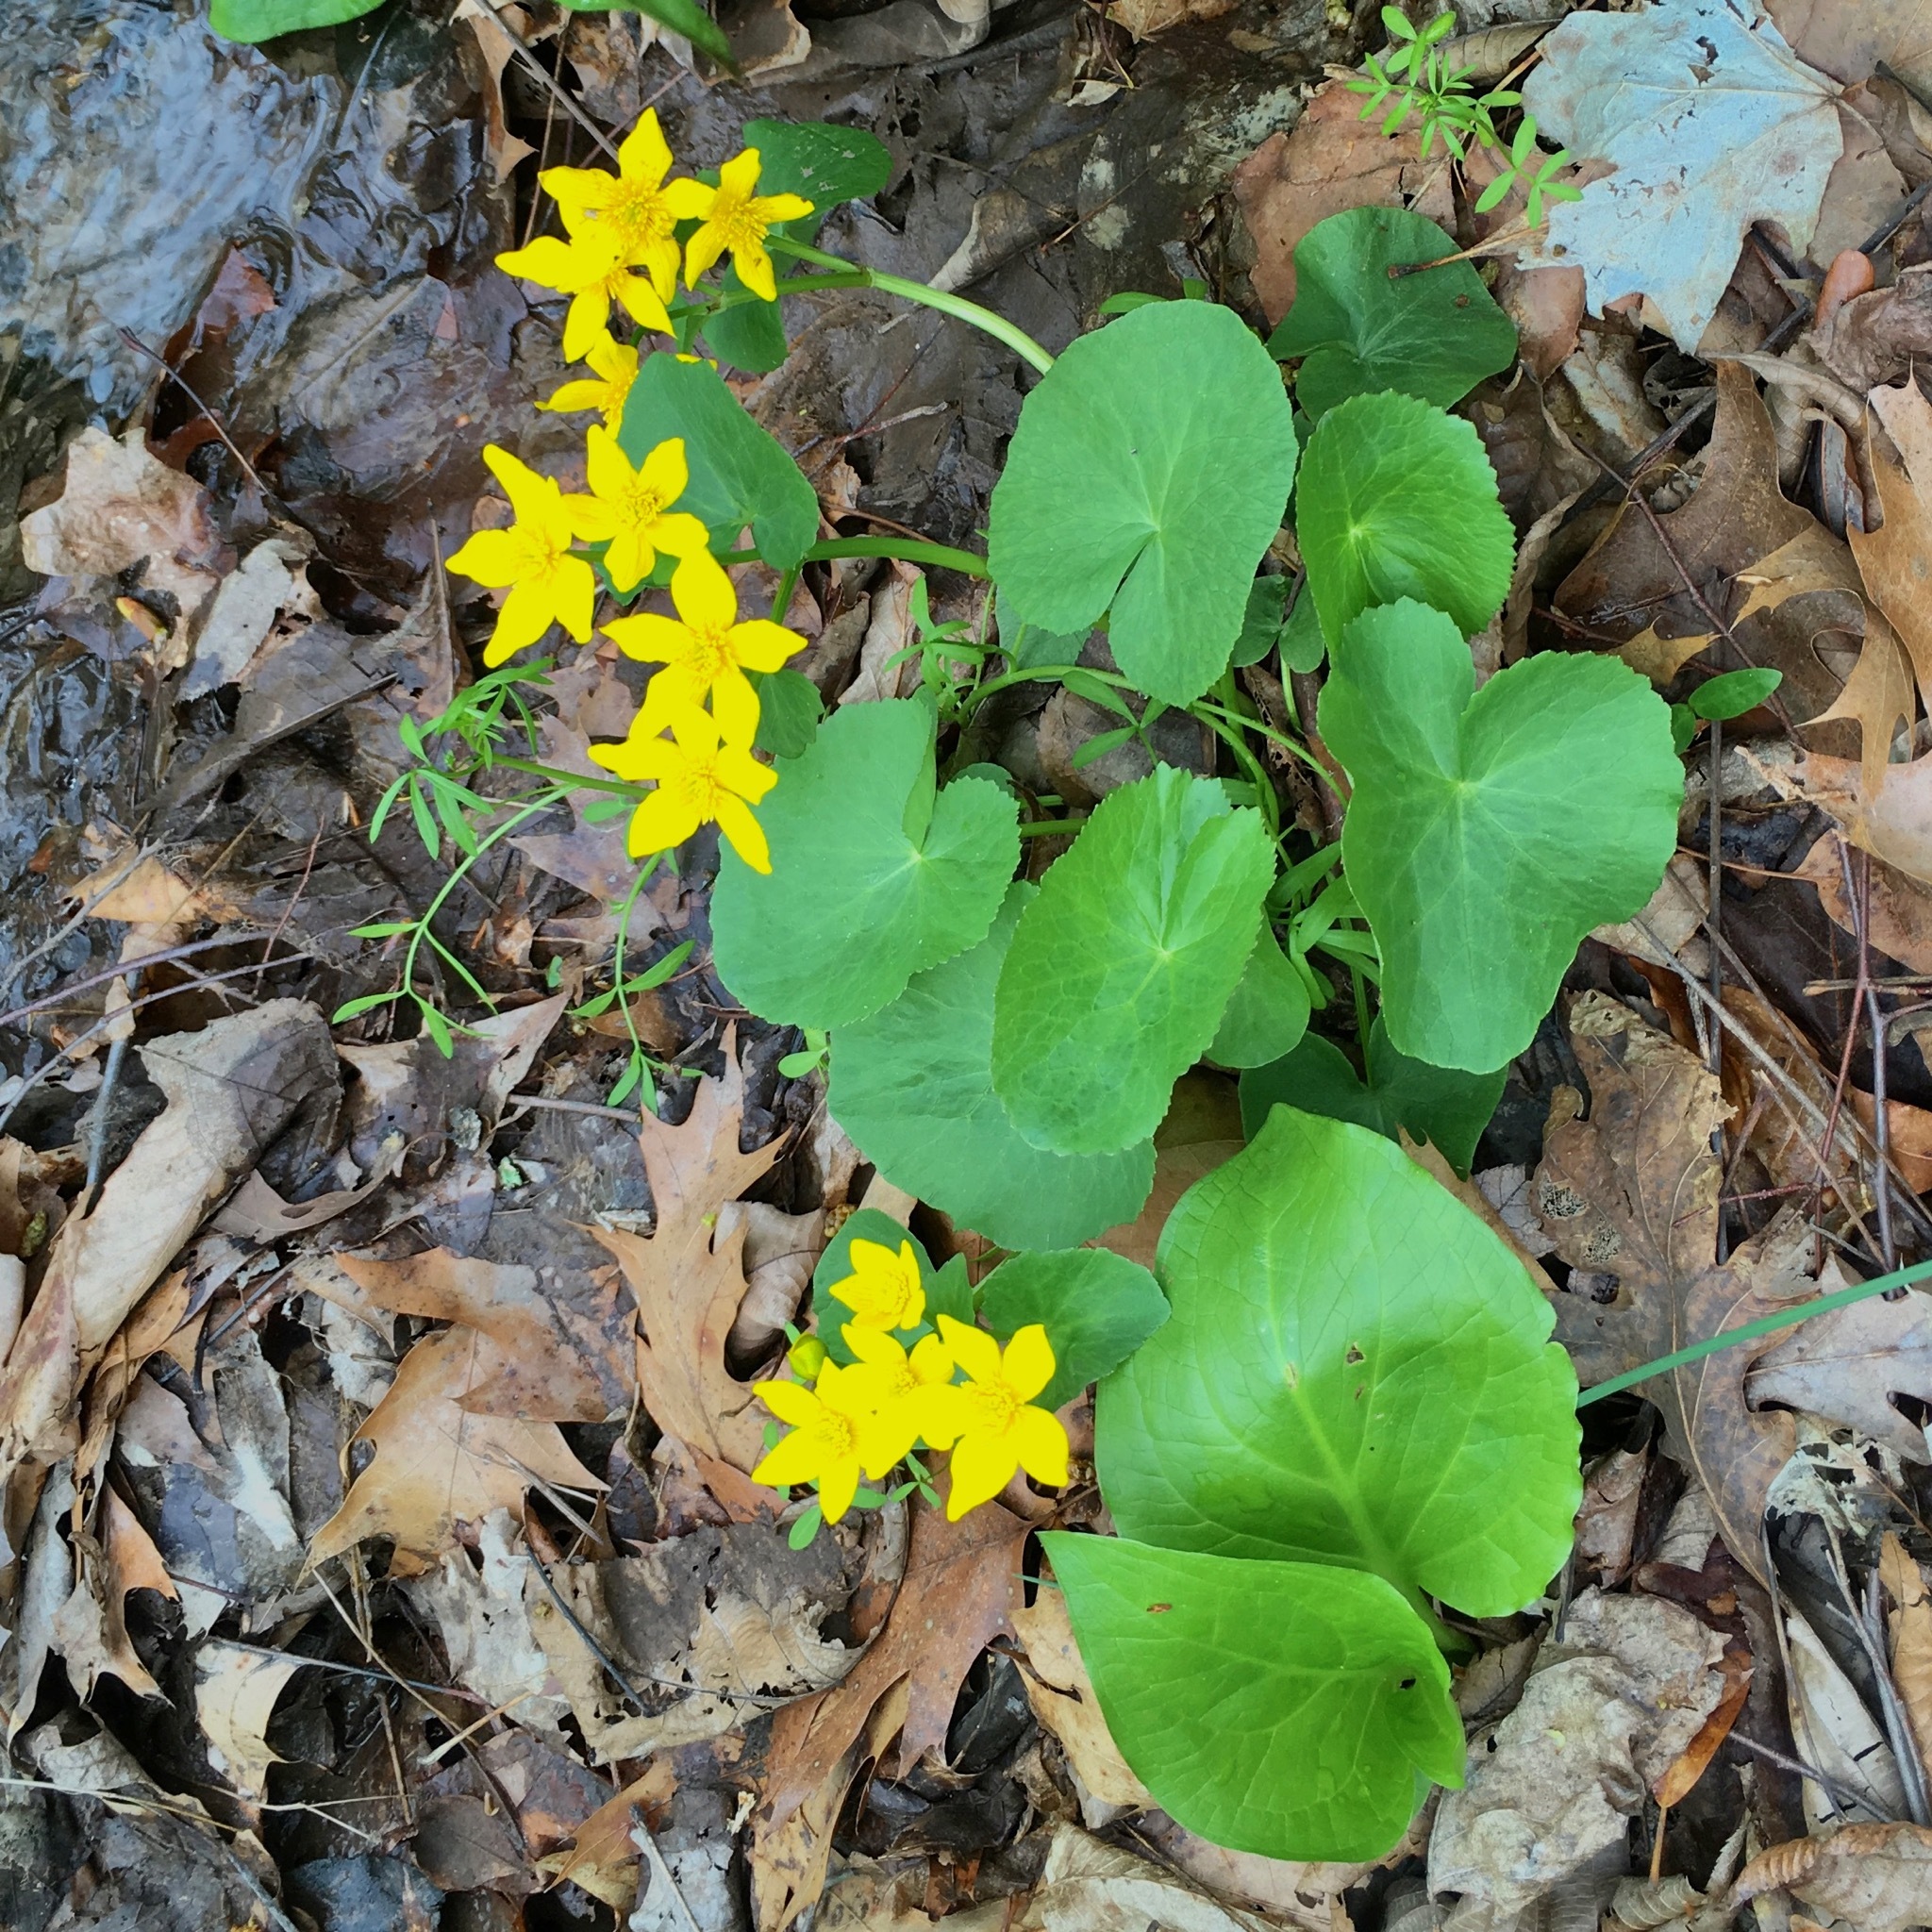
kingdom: Plantae
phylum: Tracheophyta
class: Magnoliopsida
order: Ranunculales
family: Ranunculaceae
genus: Caltha
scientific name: Caltha palustris
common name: Marsh marigold
